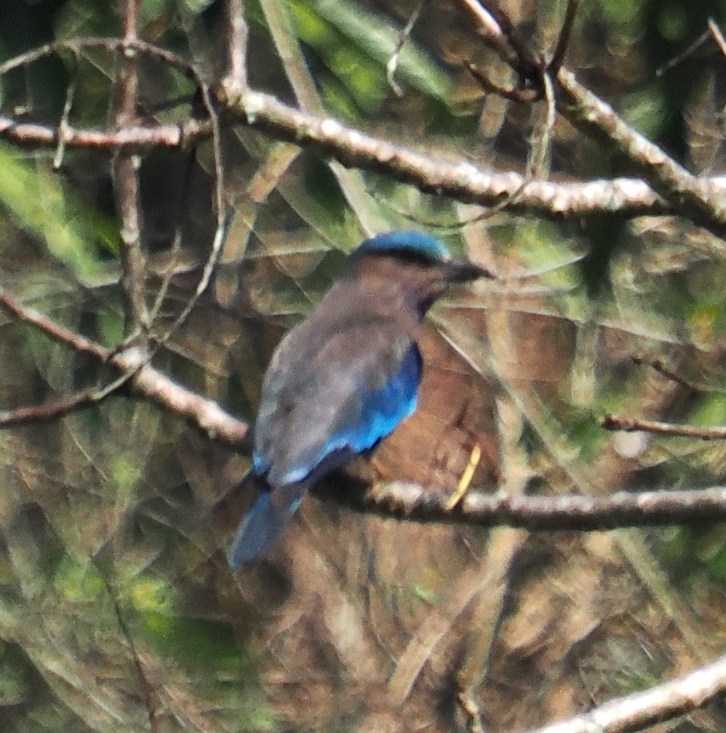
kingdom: Animalia
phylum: Chordata
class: Aves
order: Coraciiformes
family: Coraciidae
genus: Coracias
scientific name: Coracias affinis
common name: Indochinese roller
